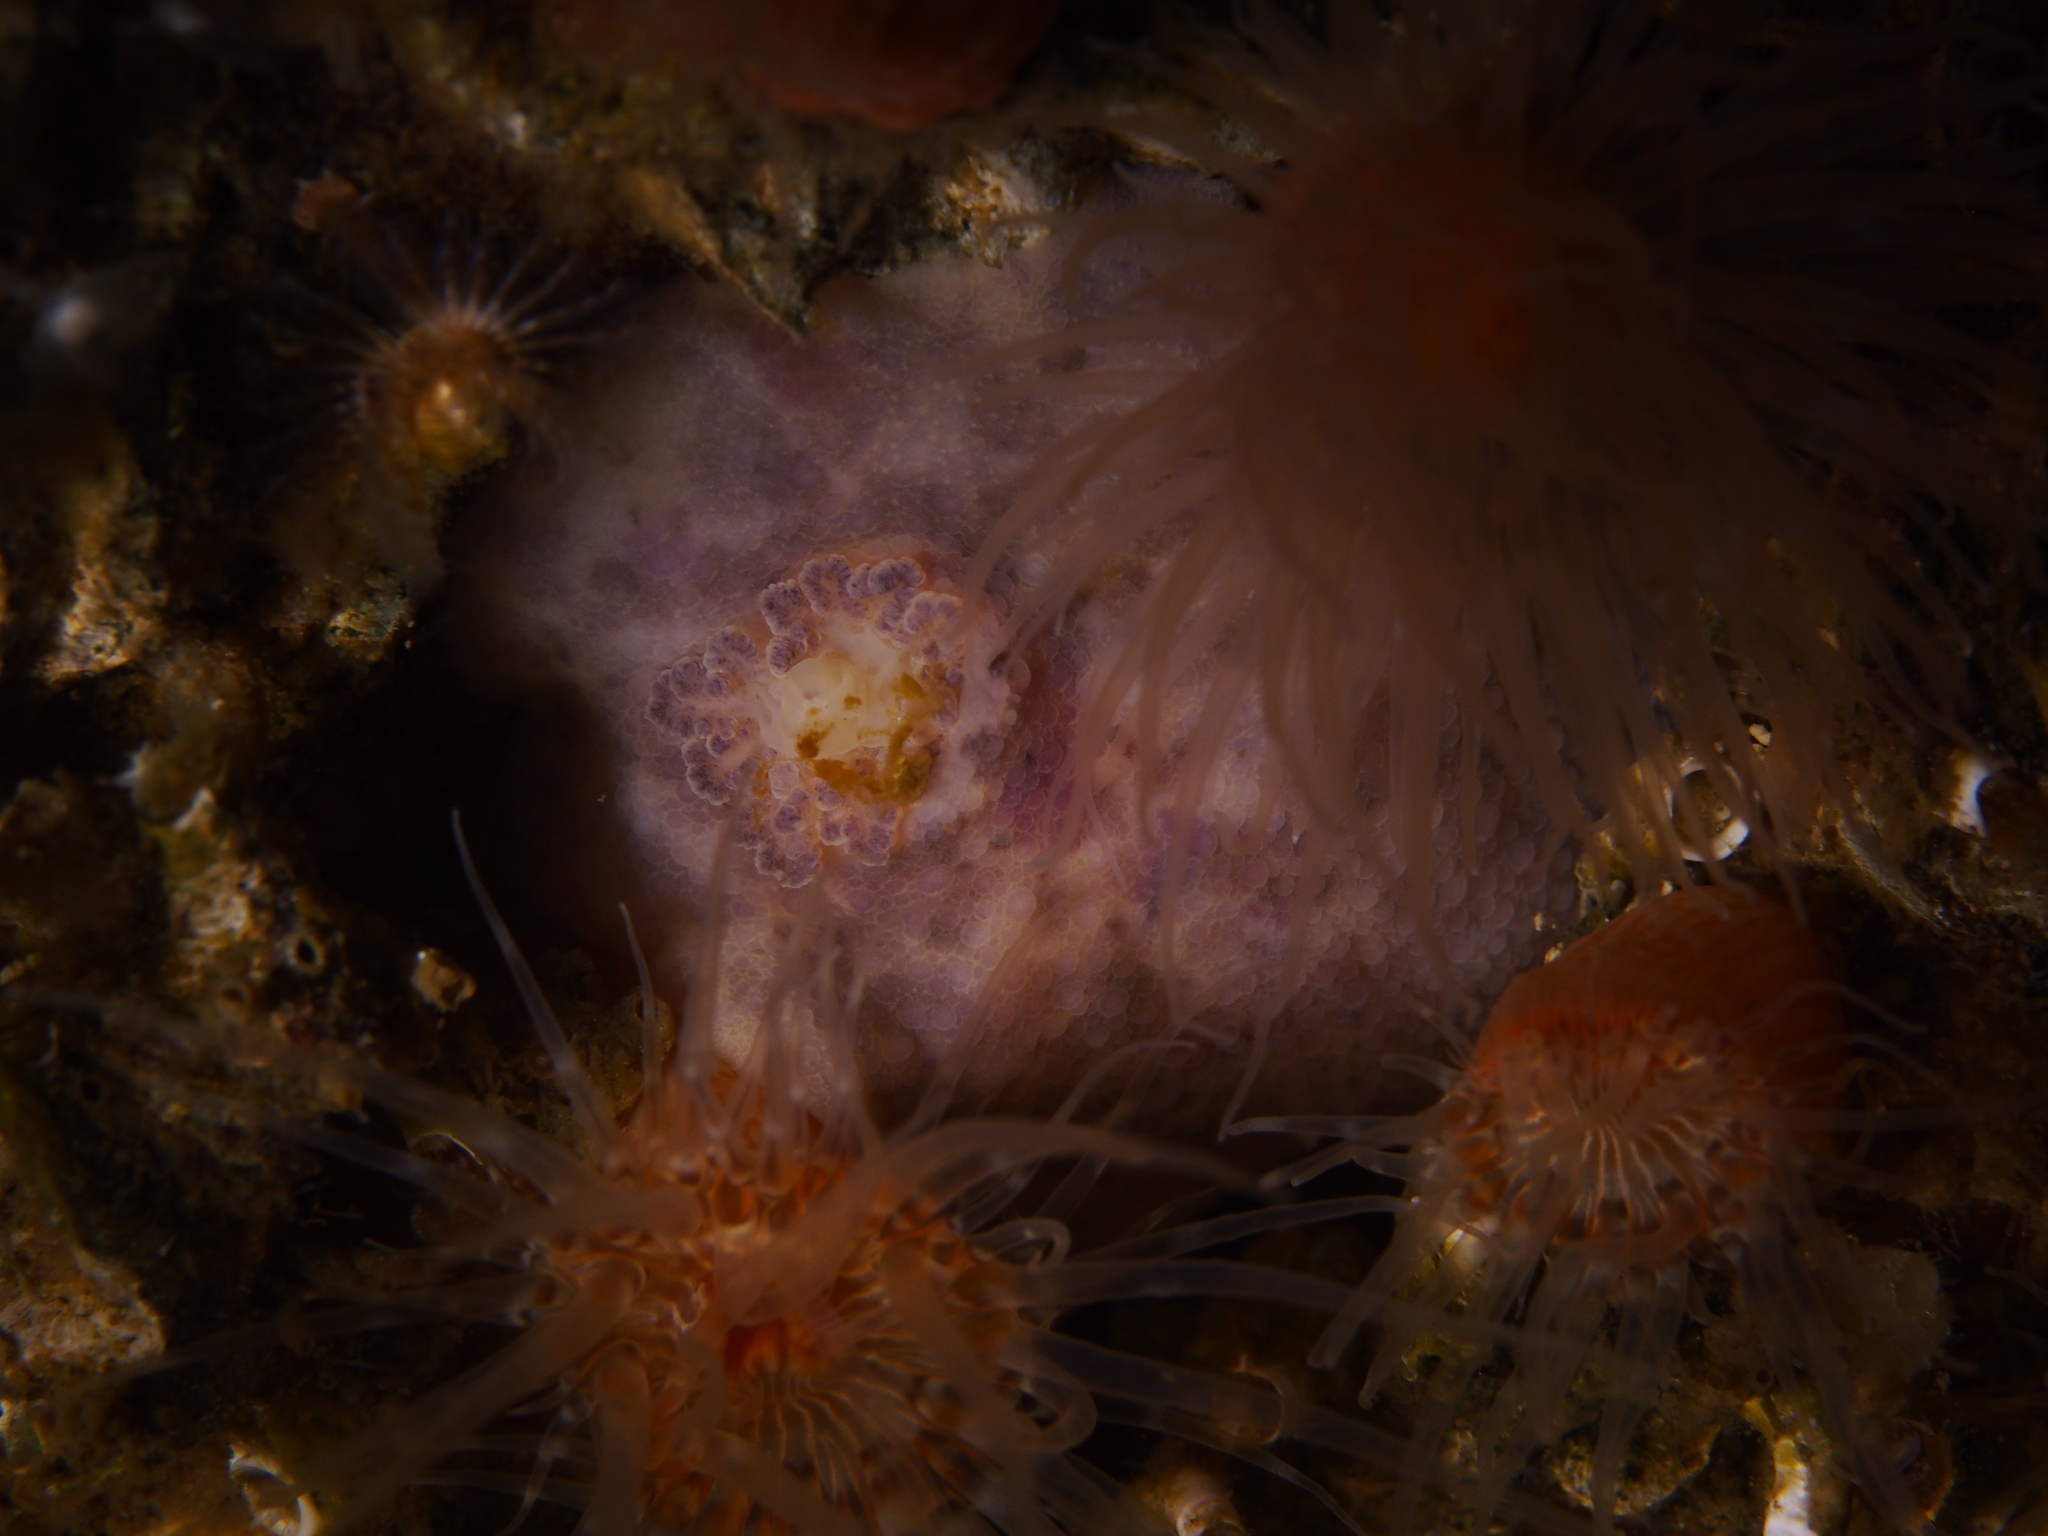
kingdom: Animalia
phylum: Mollusca
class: Gastropoda
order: Nudibranchia
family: Dorididae
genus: Doris
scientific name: Doris pseudoargus
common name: Sea lemon
